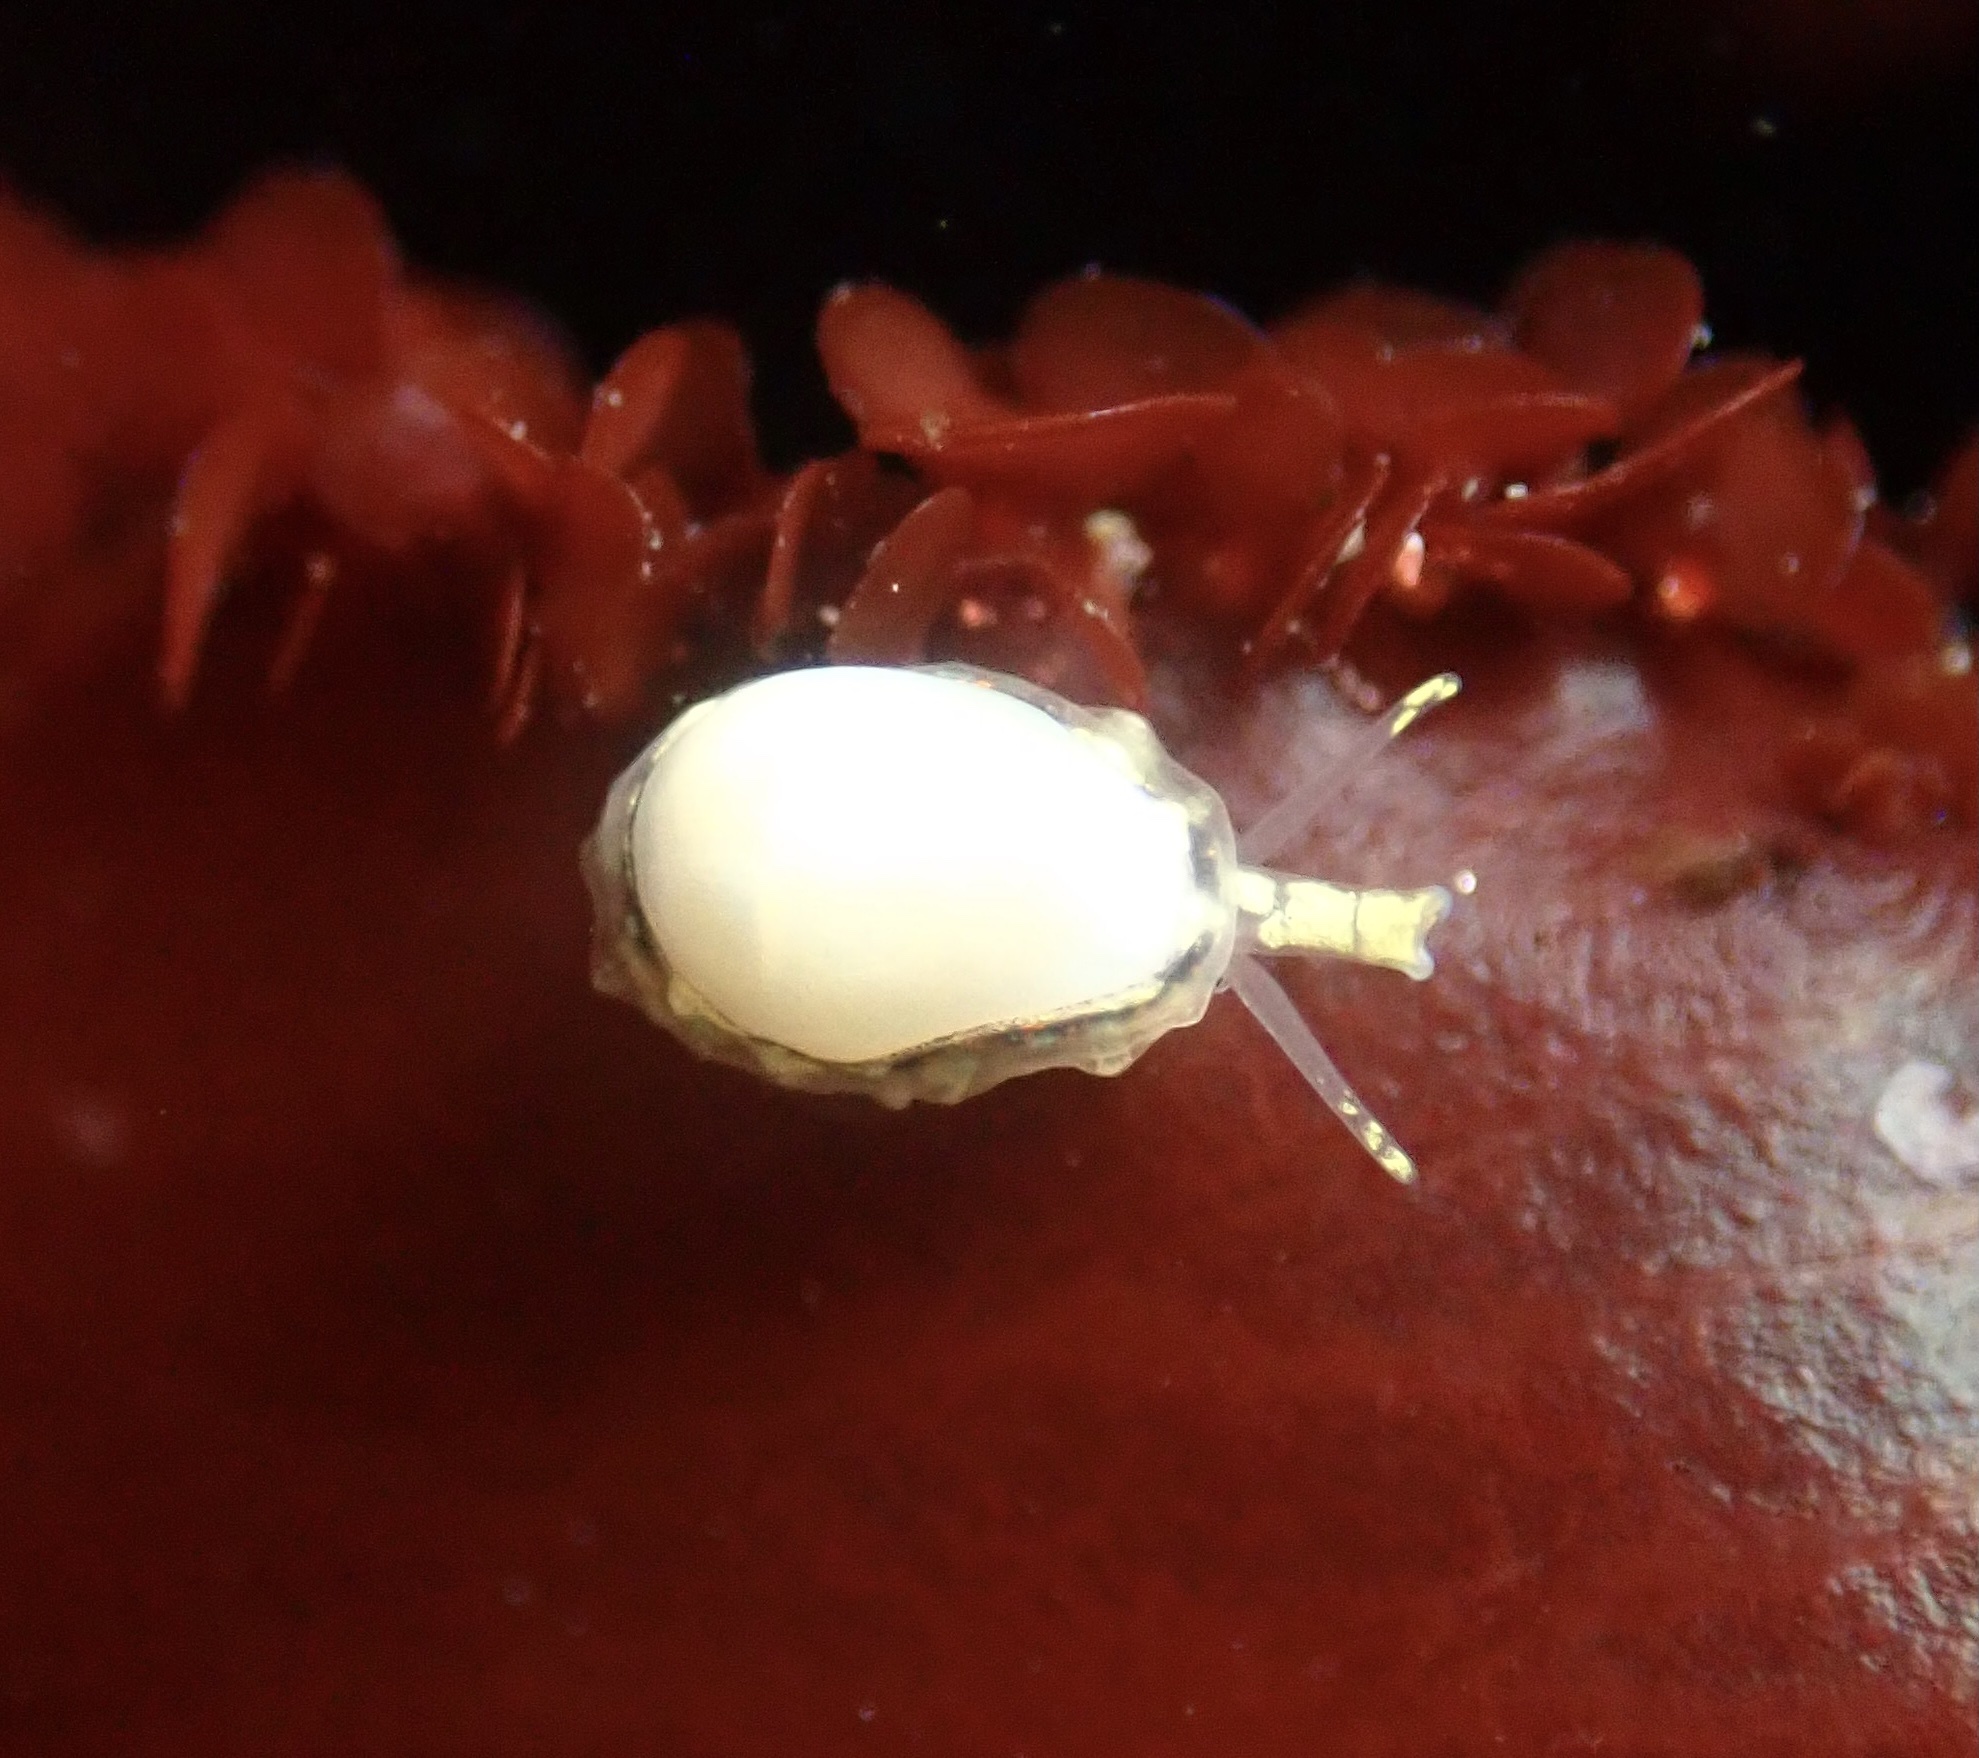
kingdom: Animalia
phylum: Mollusca
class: Gastropoda
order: Neogastropoda
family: Granulinidae
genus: Granulina
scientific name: Granulina margaritula
